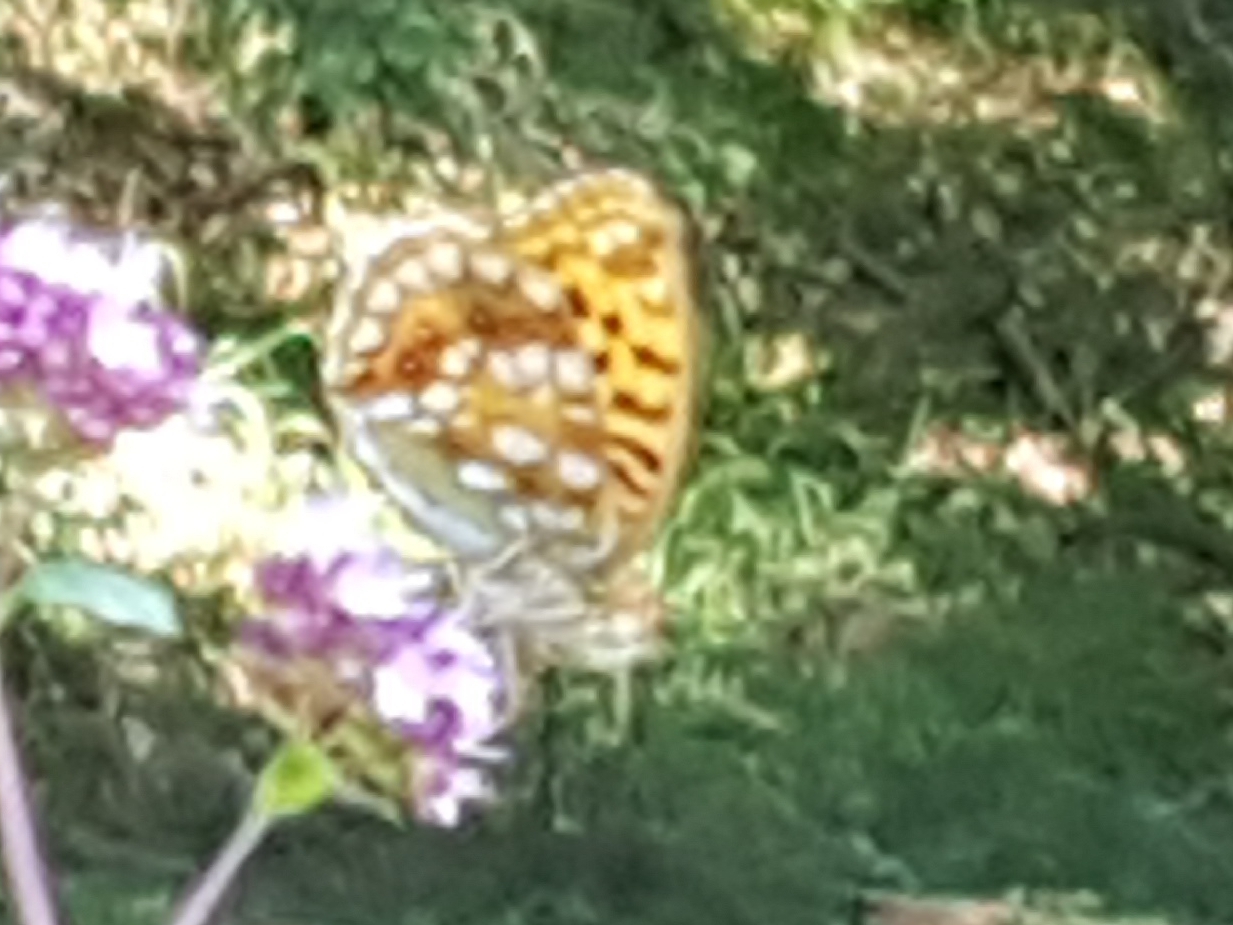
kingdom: Animalia
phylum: Arthropoda
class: Insecta
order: Lepidoptera
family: Nymphalidae
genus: Fabriciana
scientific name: Fabriciana adippe
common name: High brown fritillary
